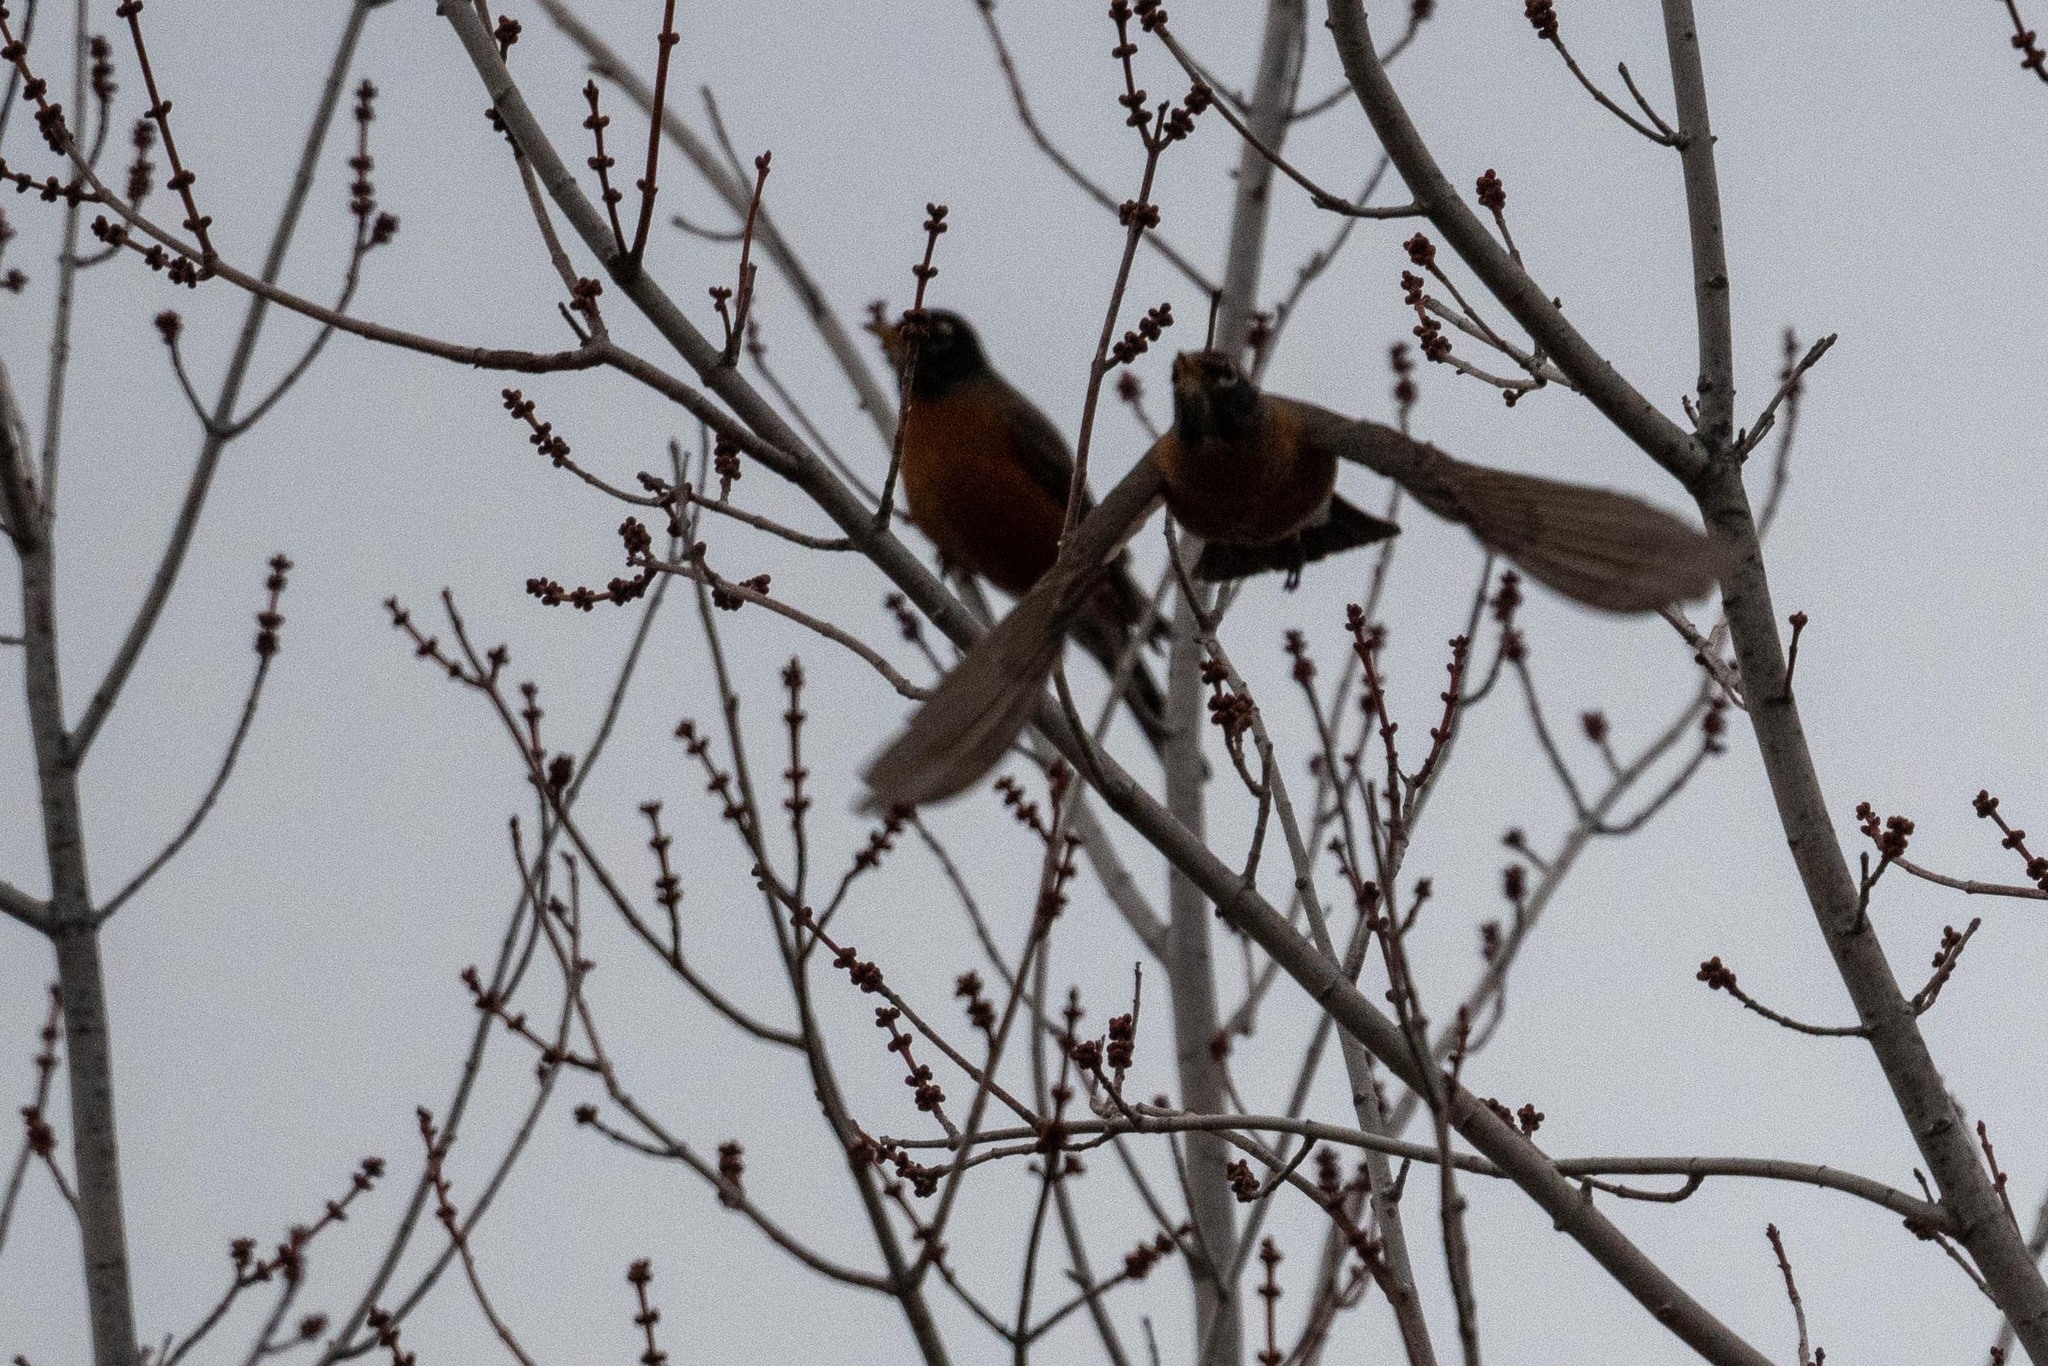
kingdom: Animalia
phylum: Chordata
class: Aves
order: Passeriformes
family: Turdidae
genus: Turdus
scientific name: Turdus migratorius
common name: American robin
